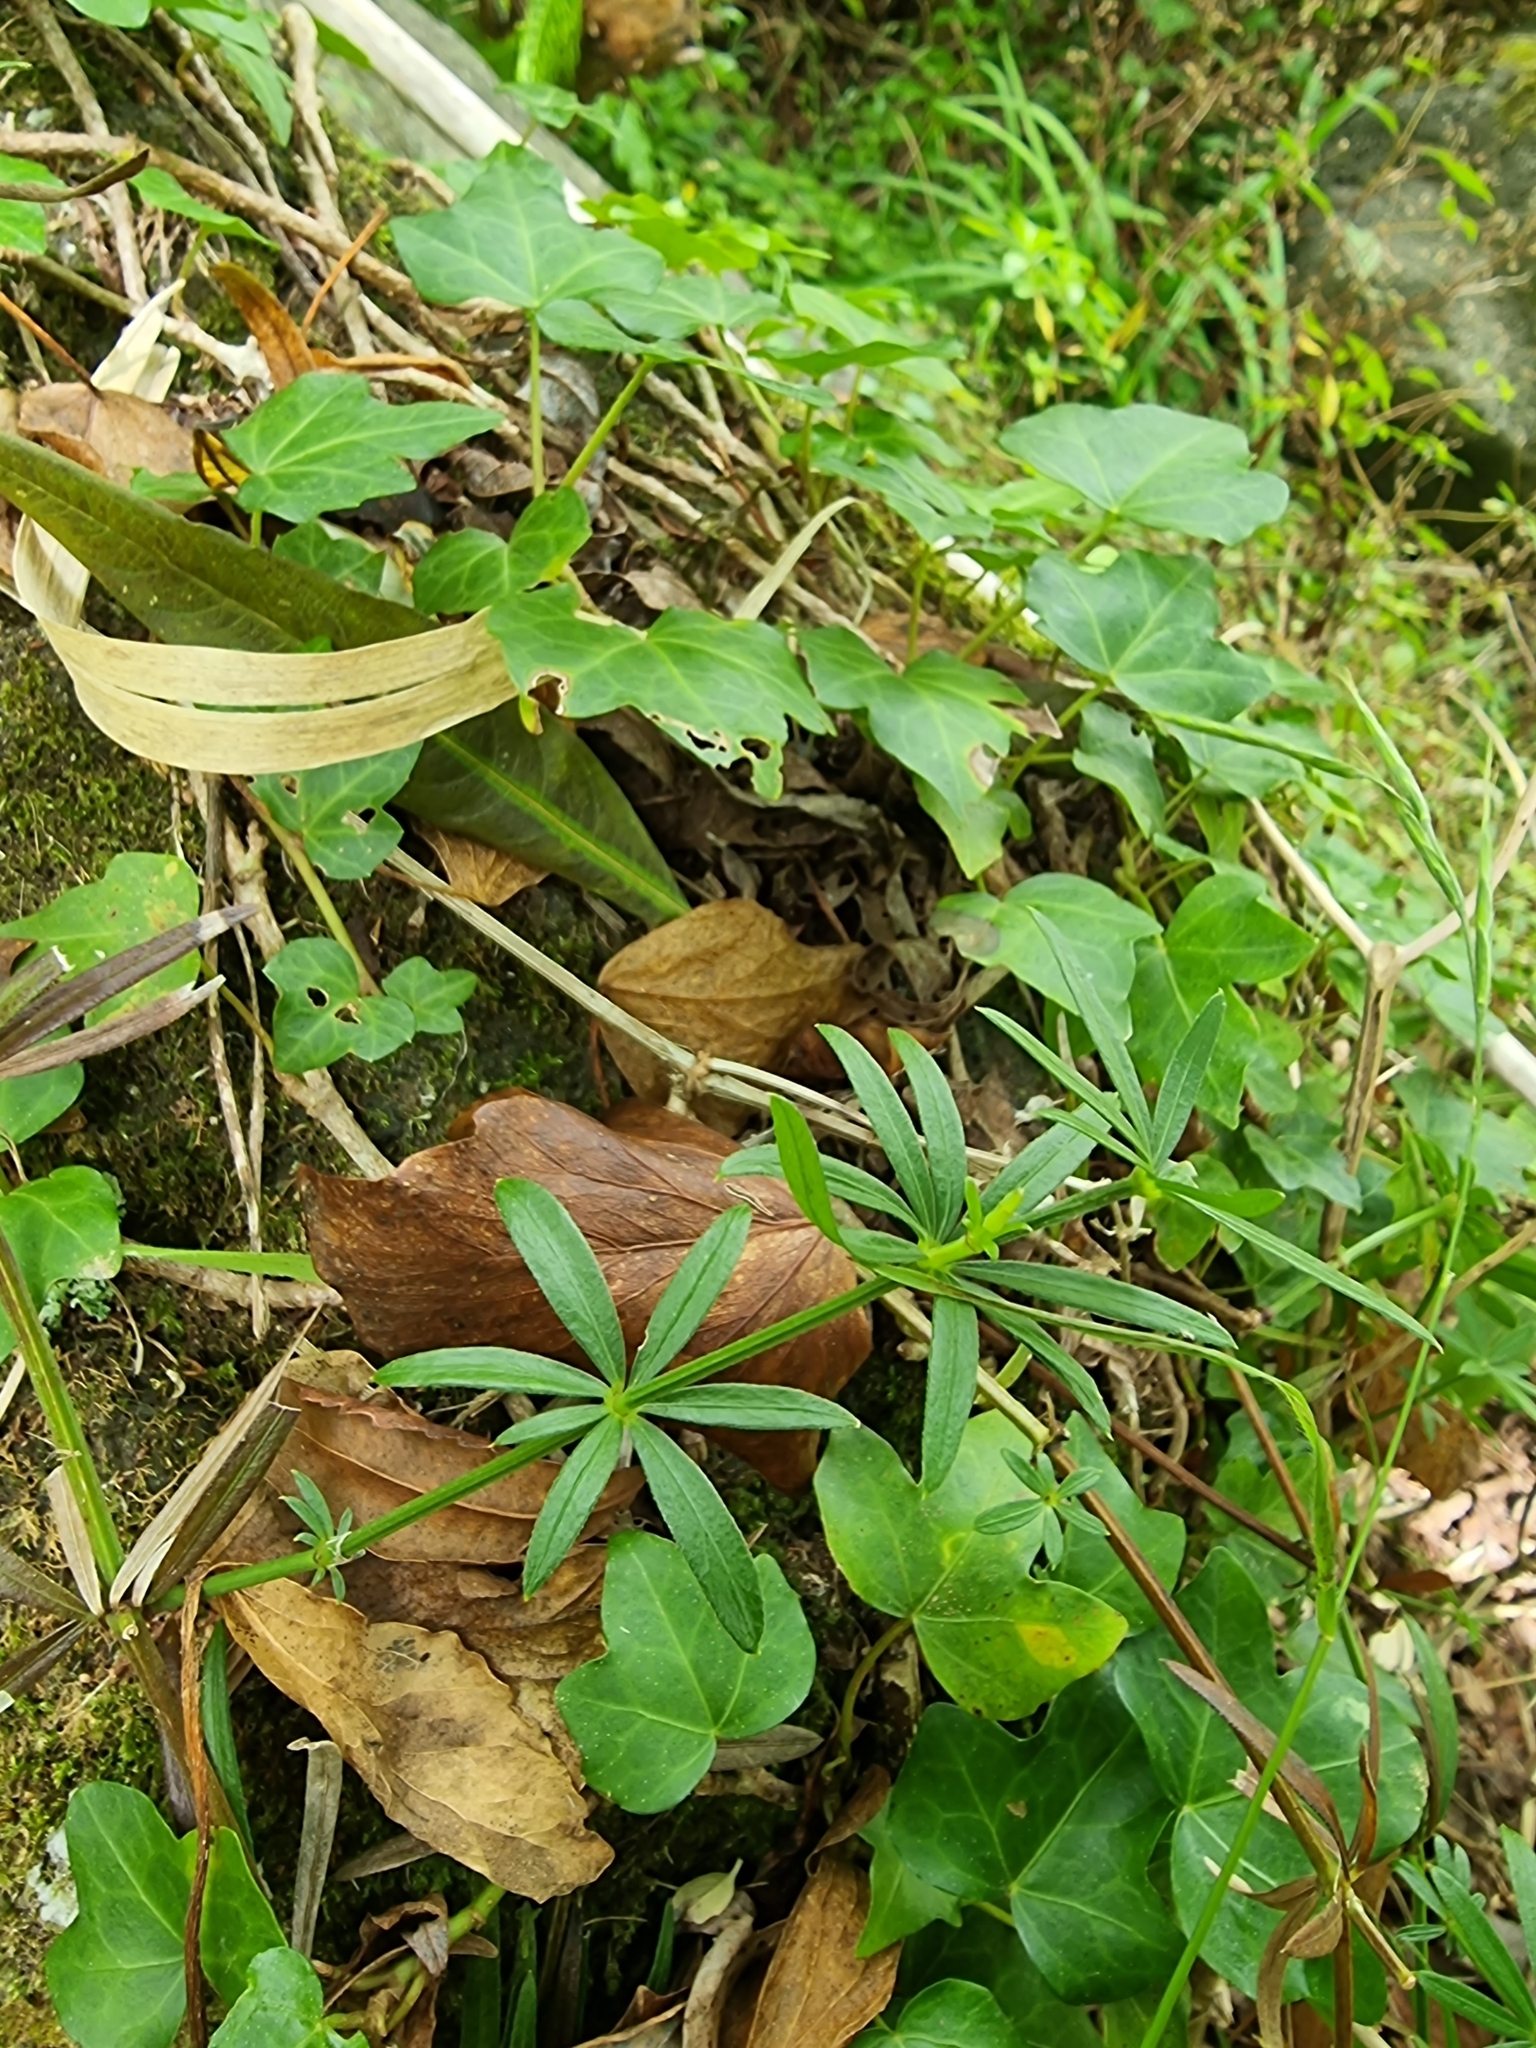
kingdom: Plantae
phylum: Tracheophyta
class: Magnoliopsida
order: Gentianales
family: Rubiaceae
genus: Rubia
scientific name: Rubia occidens
